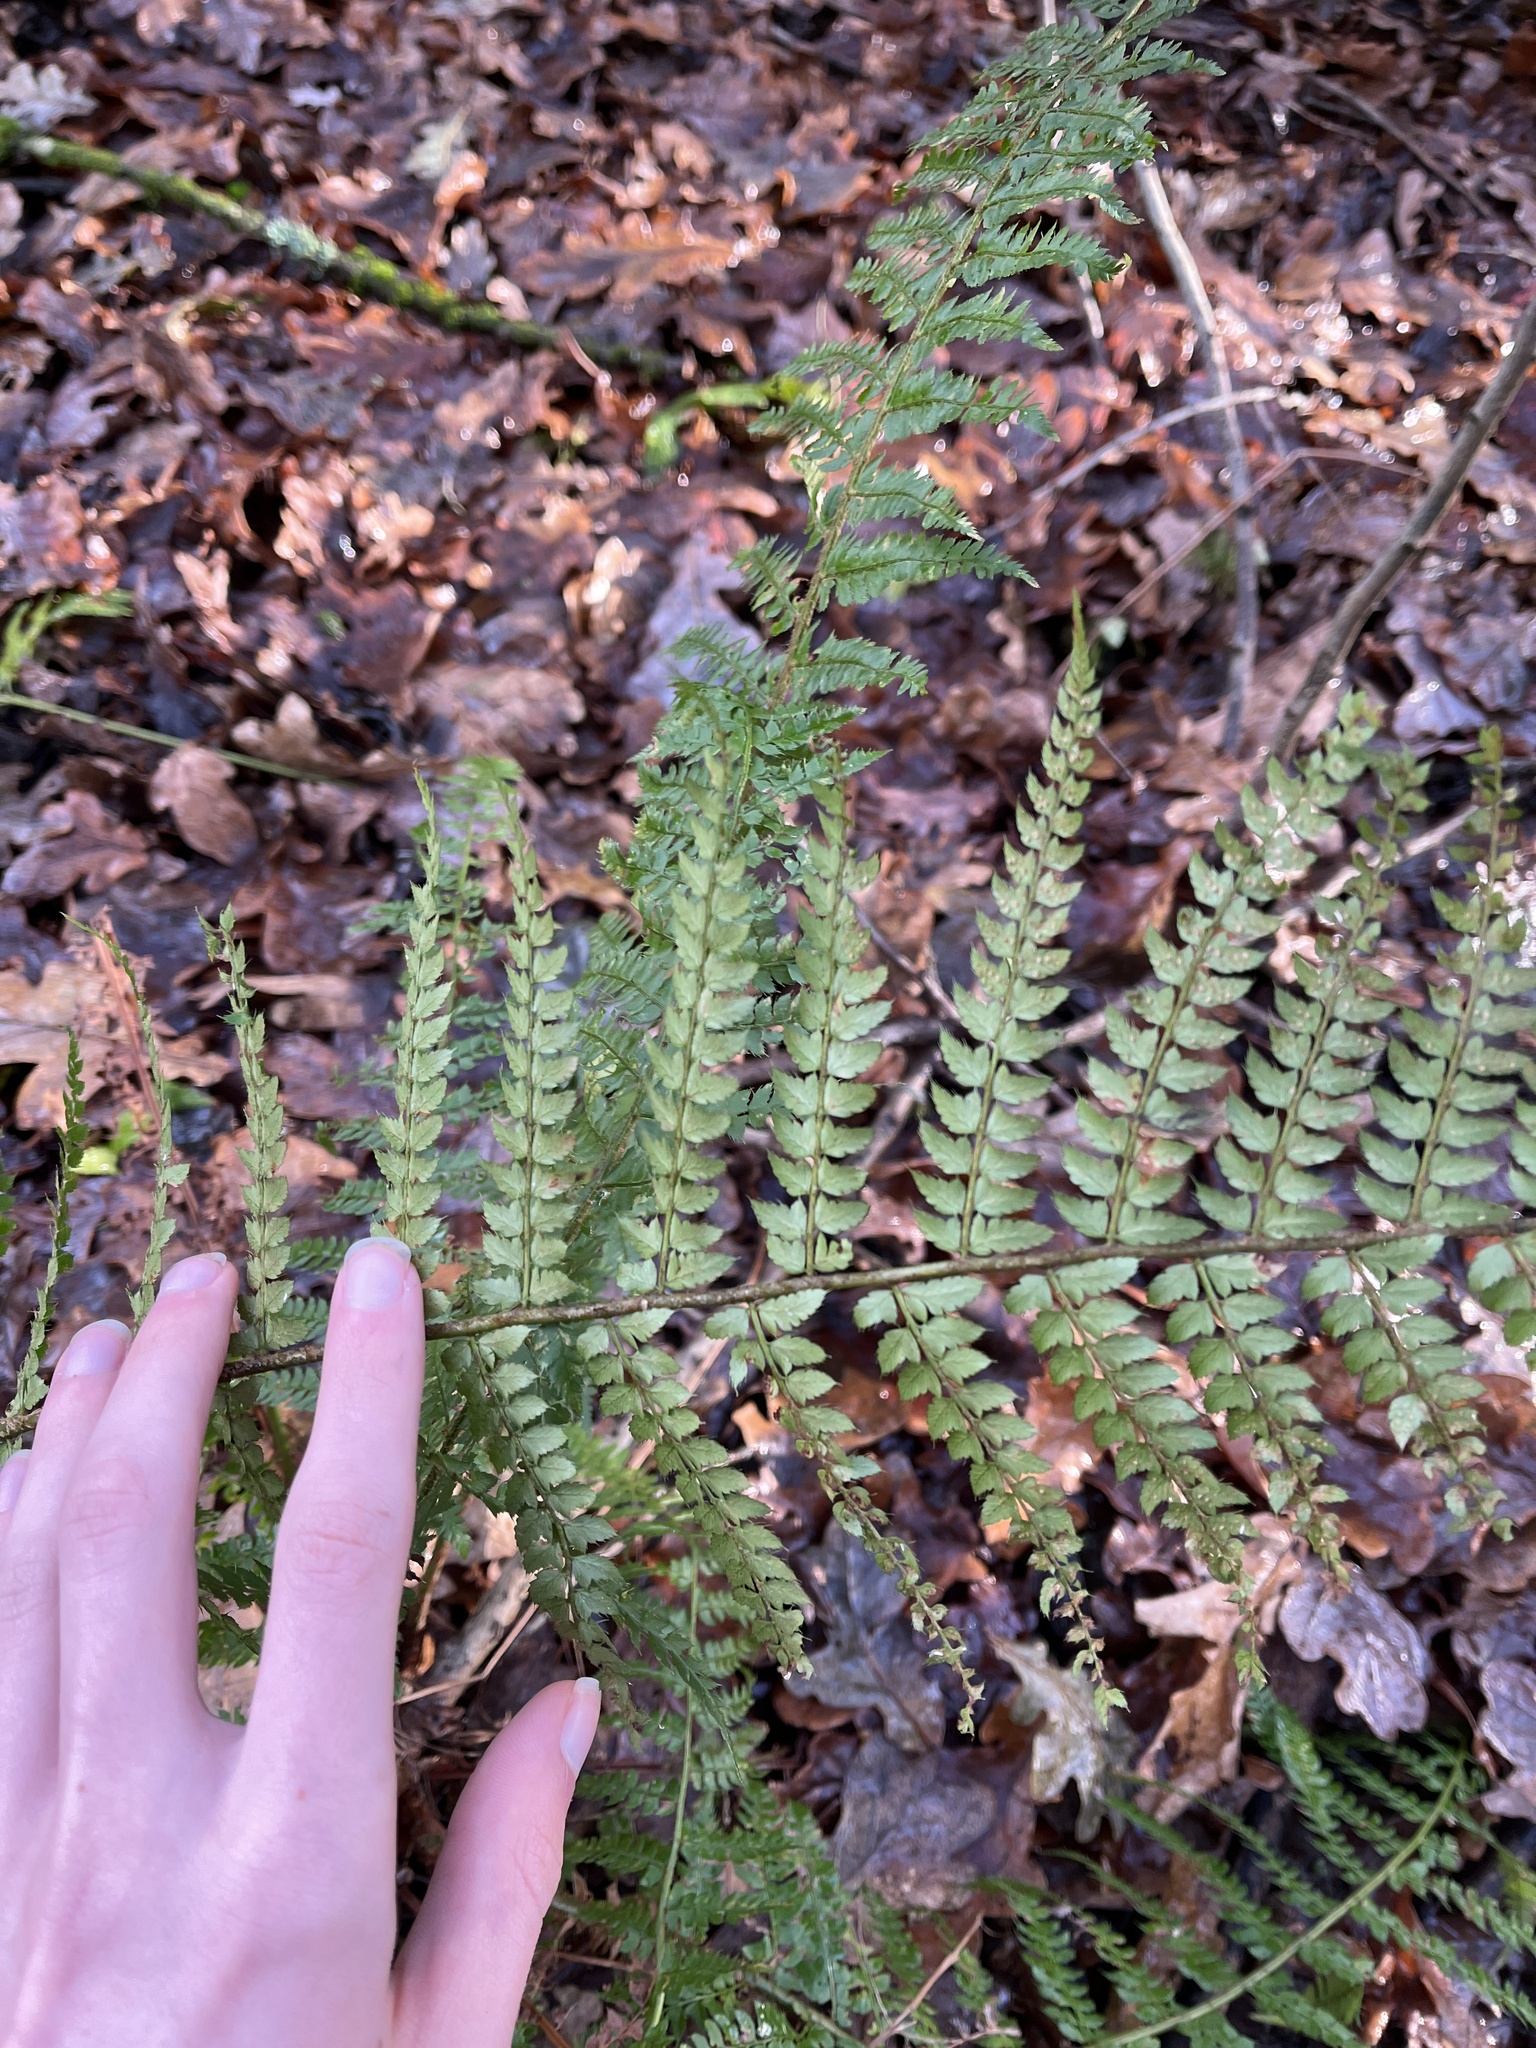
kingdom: Plantae
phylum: Tracheophyta
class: Polypodiopsida
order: Polypodiales
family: Dryopteridaceae
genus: Polystichum
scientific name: Polystichum setiferum
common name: Soft shield-fern
